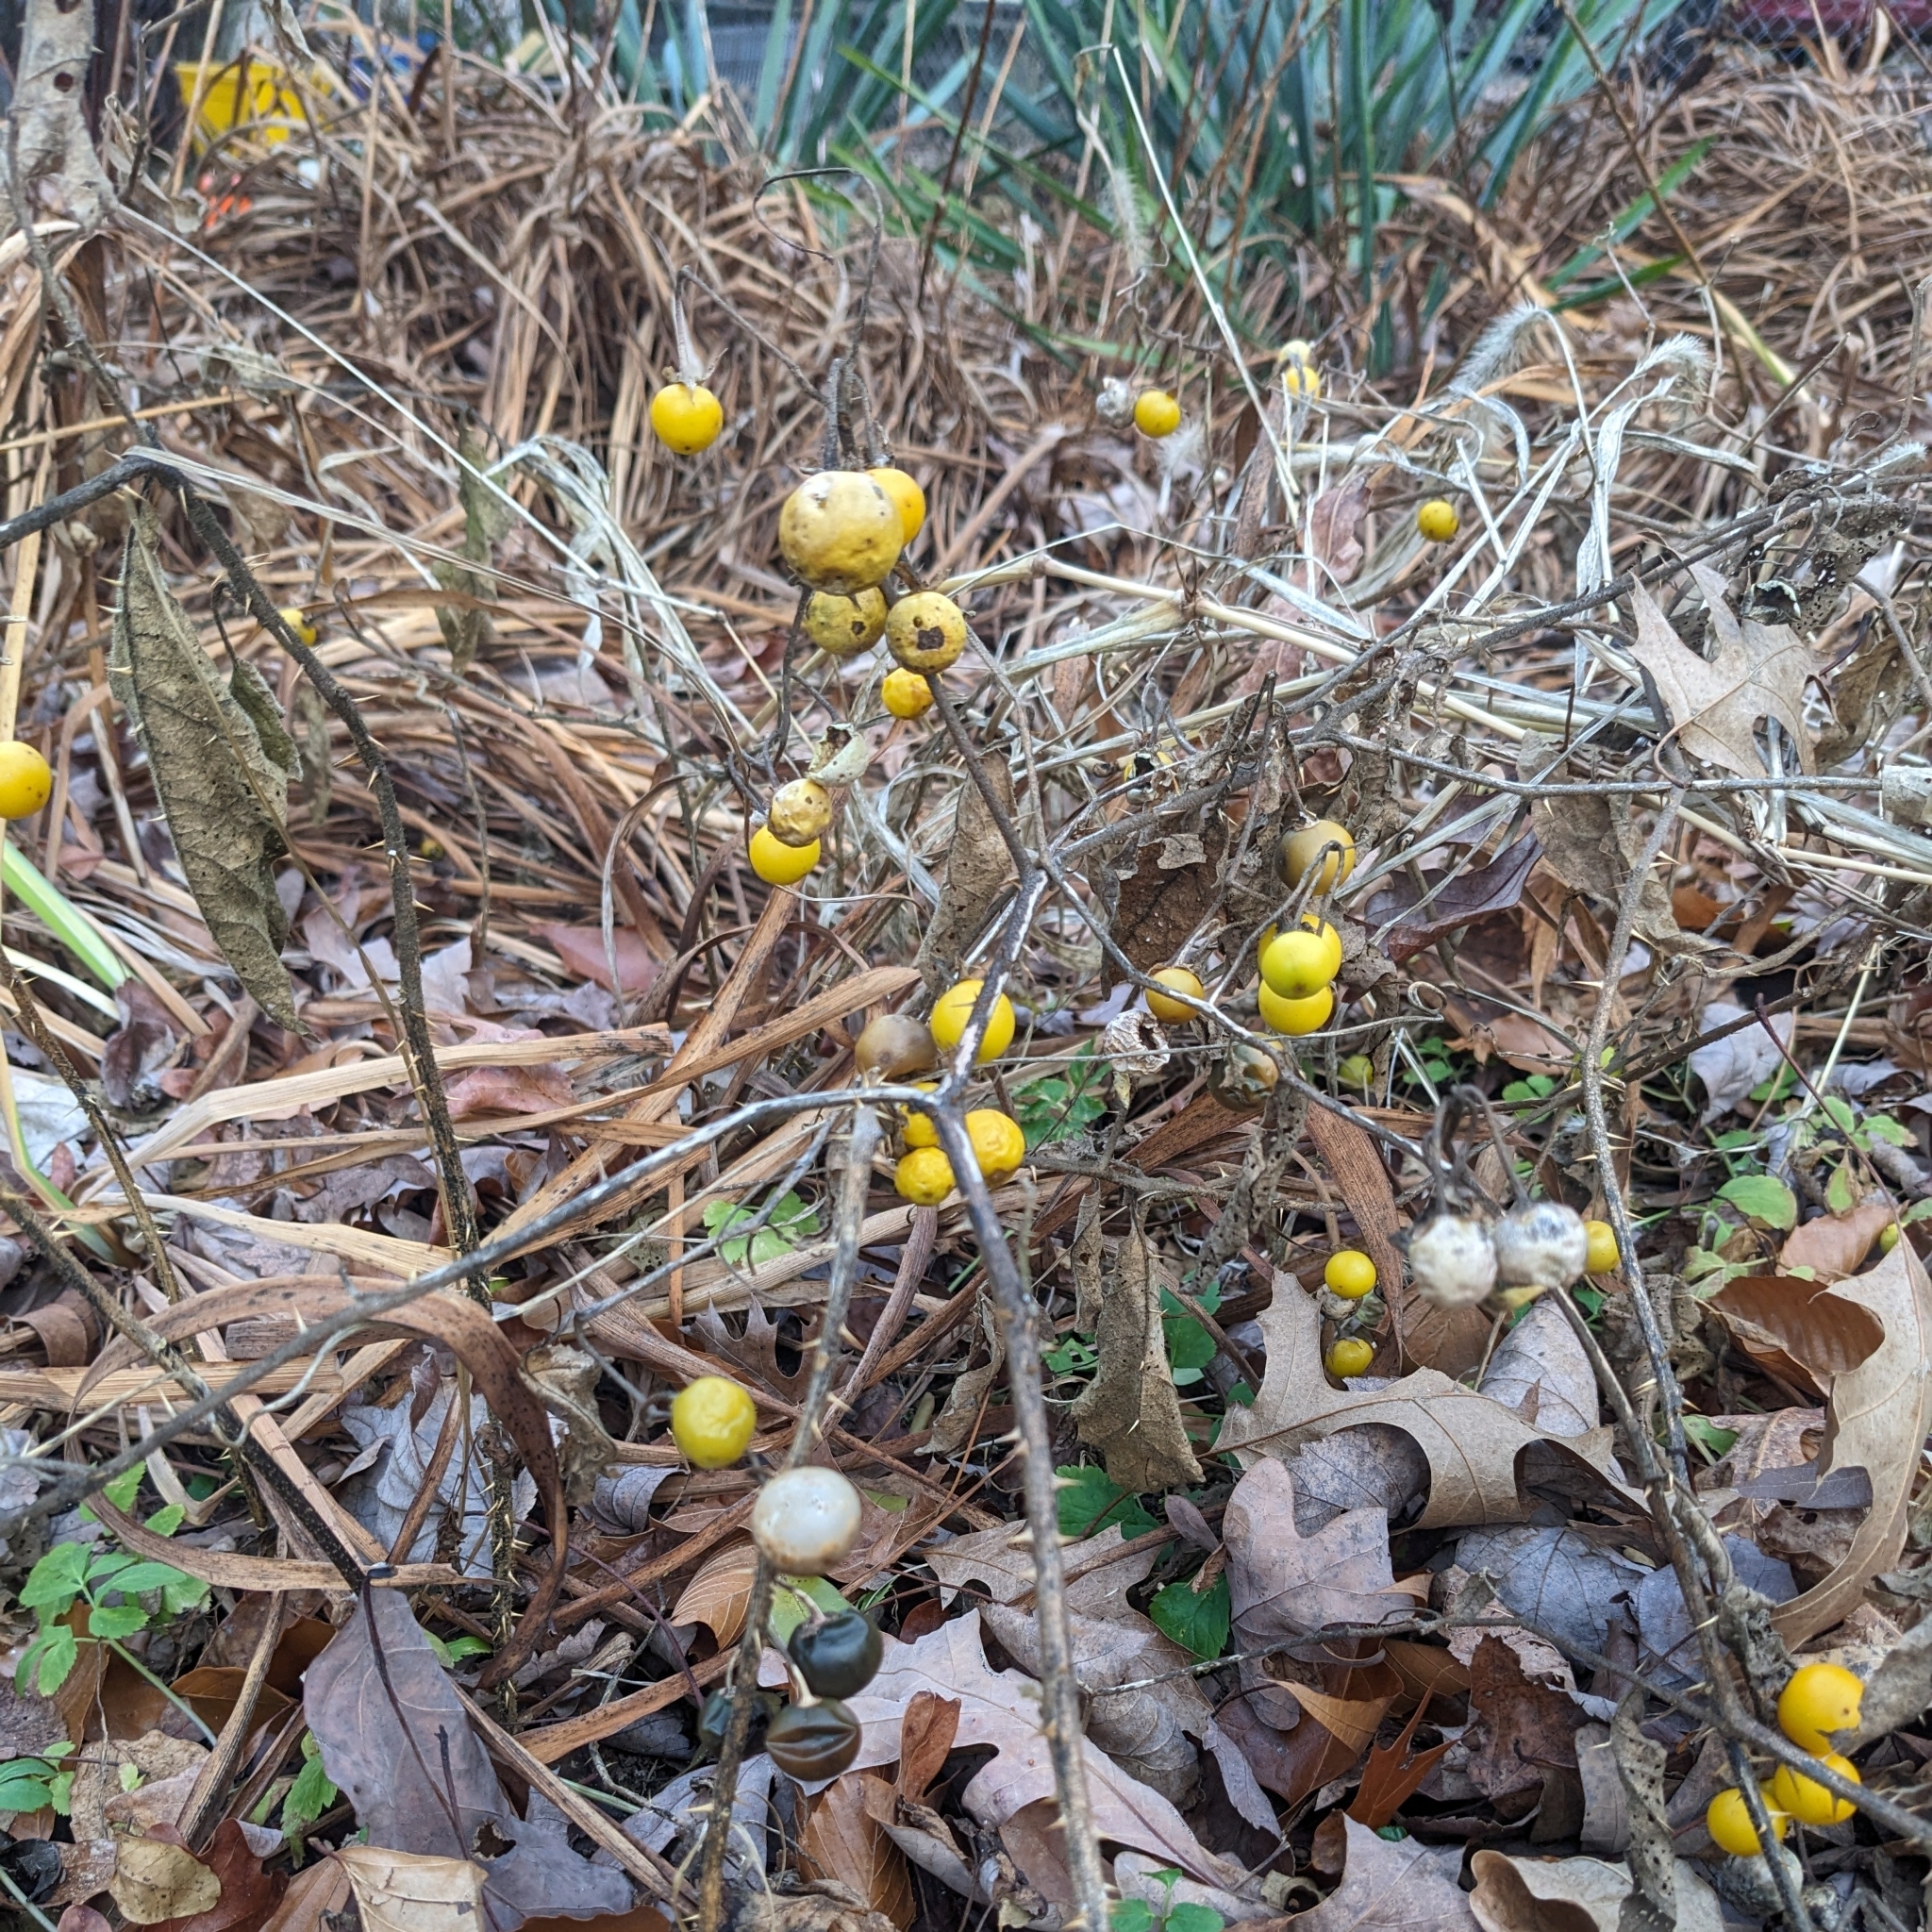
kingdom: Plantae
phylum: Tracheophyta
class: Magnoliopsida
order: Solanales
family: Solanaceae
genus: Solanum
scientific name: Solanum carolinense
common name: Horse-nettle
